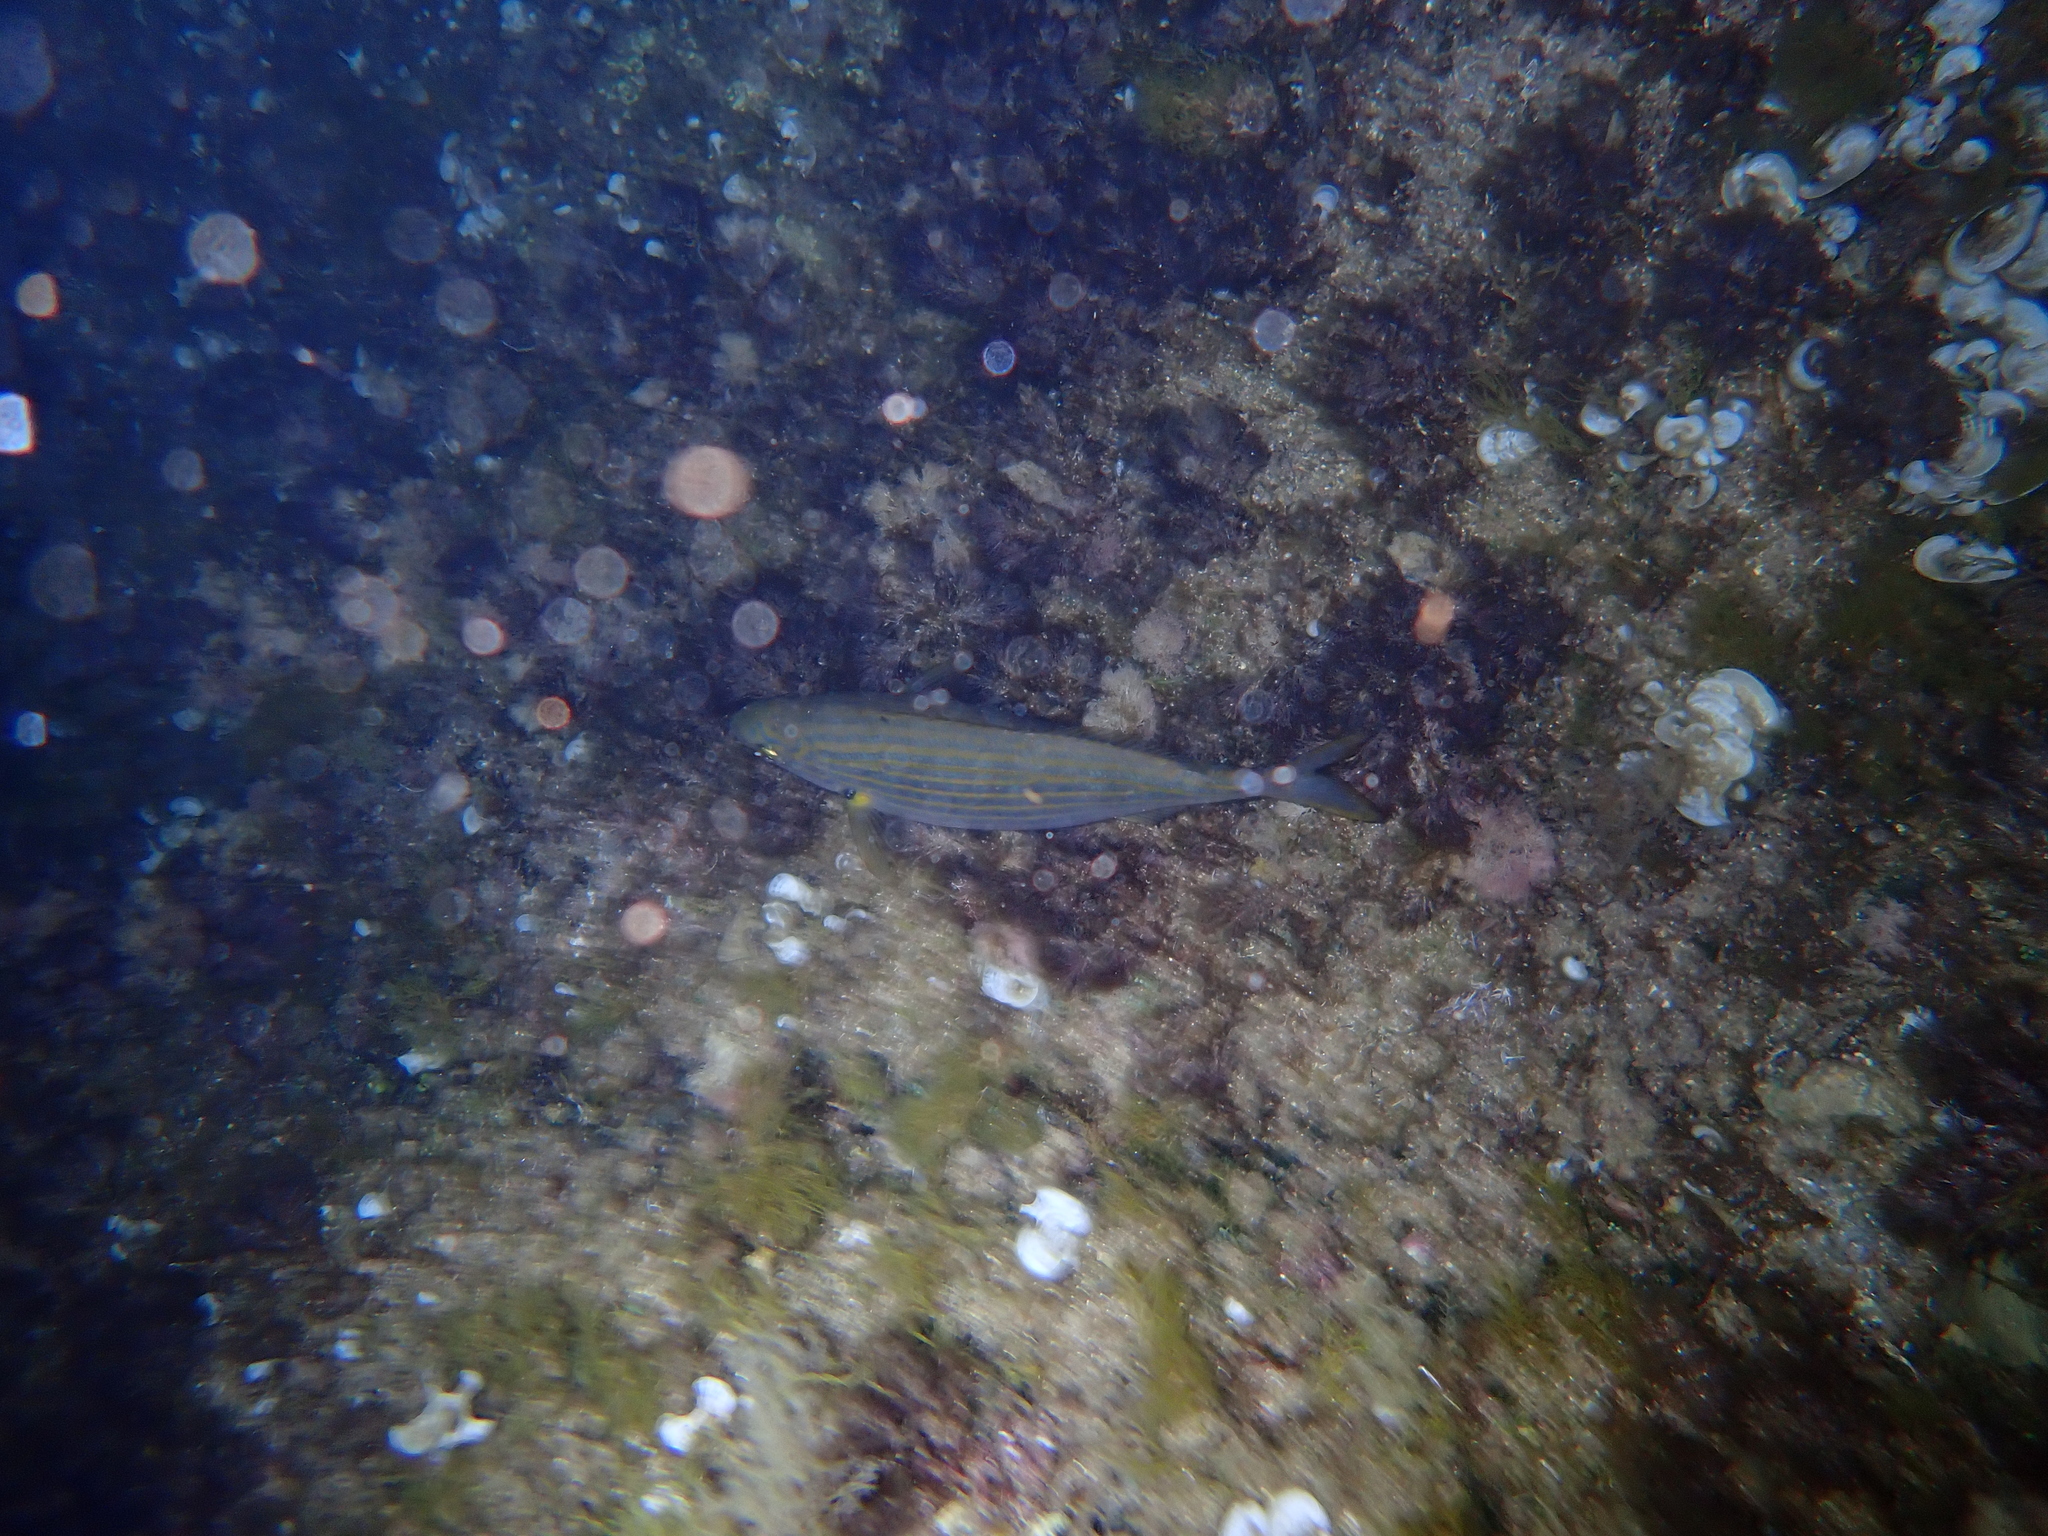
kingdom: Animalia
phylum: Chordata
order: Perciformes
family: Sparidae
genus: Sarpa
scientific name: Sarpa salpa
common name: Salema
